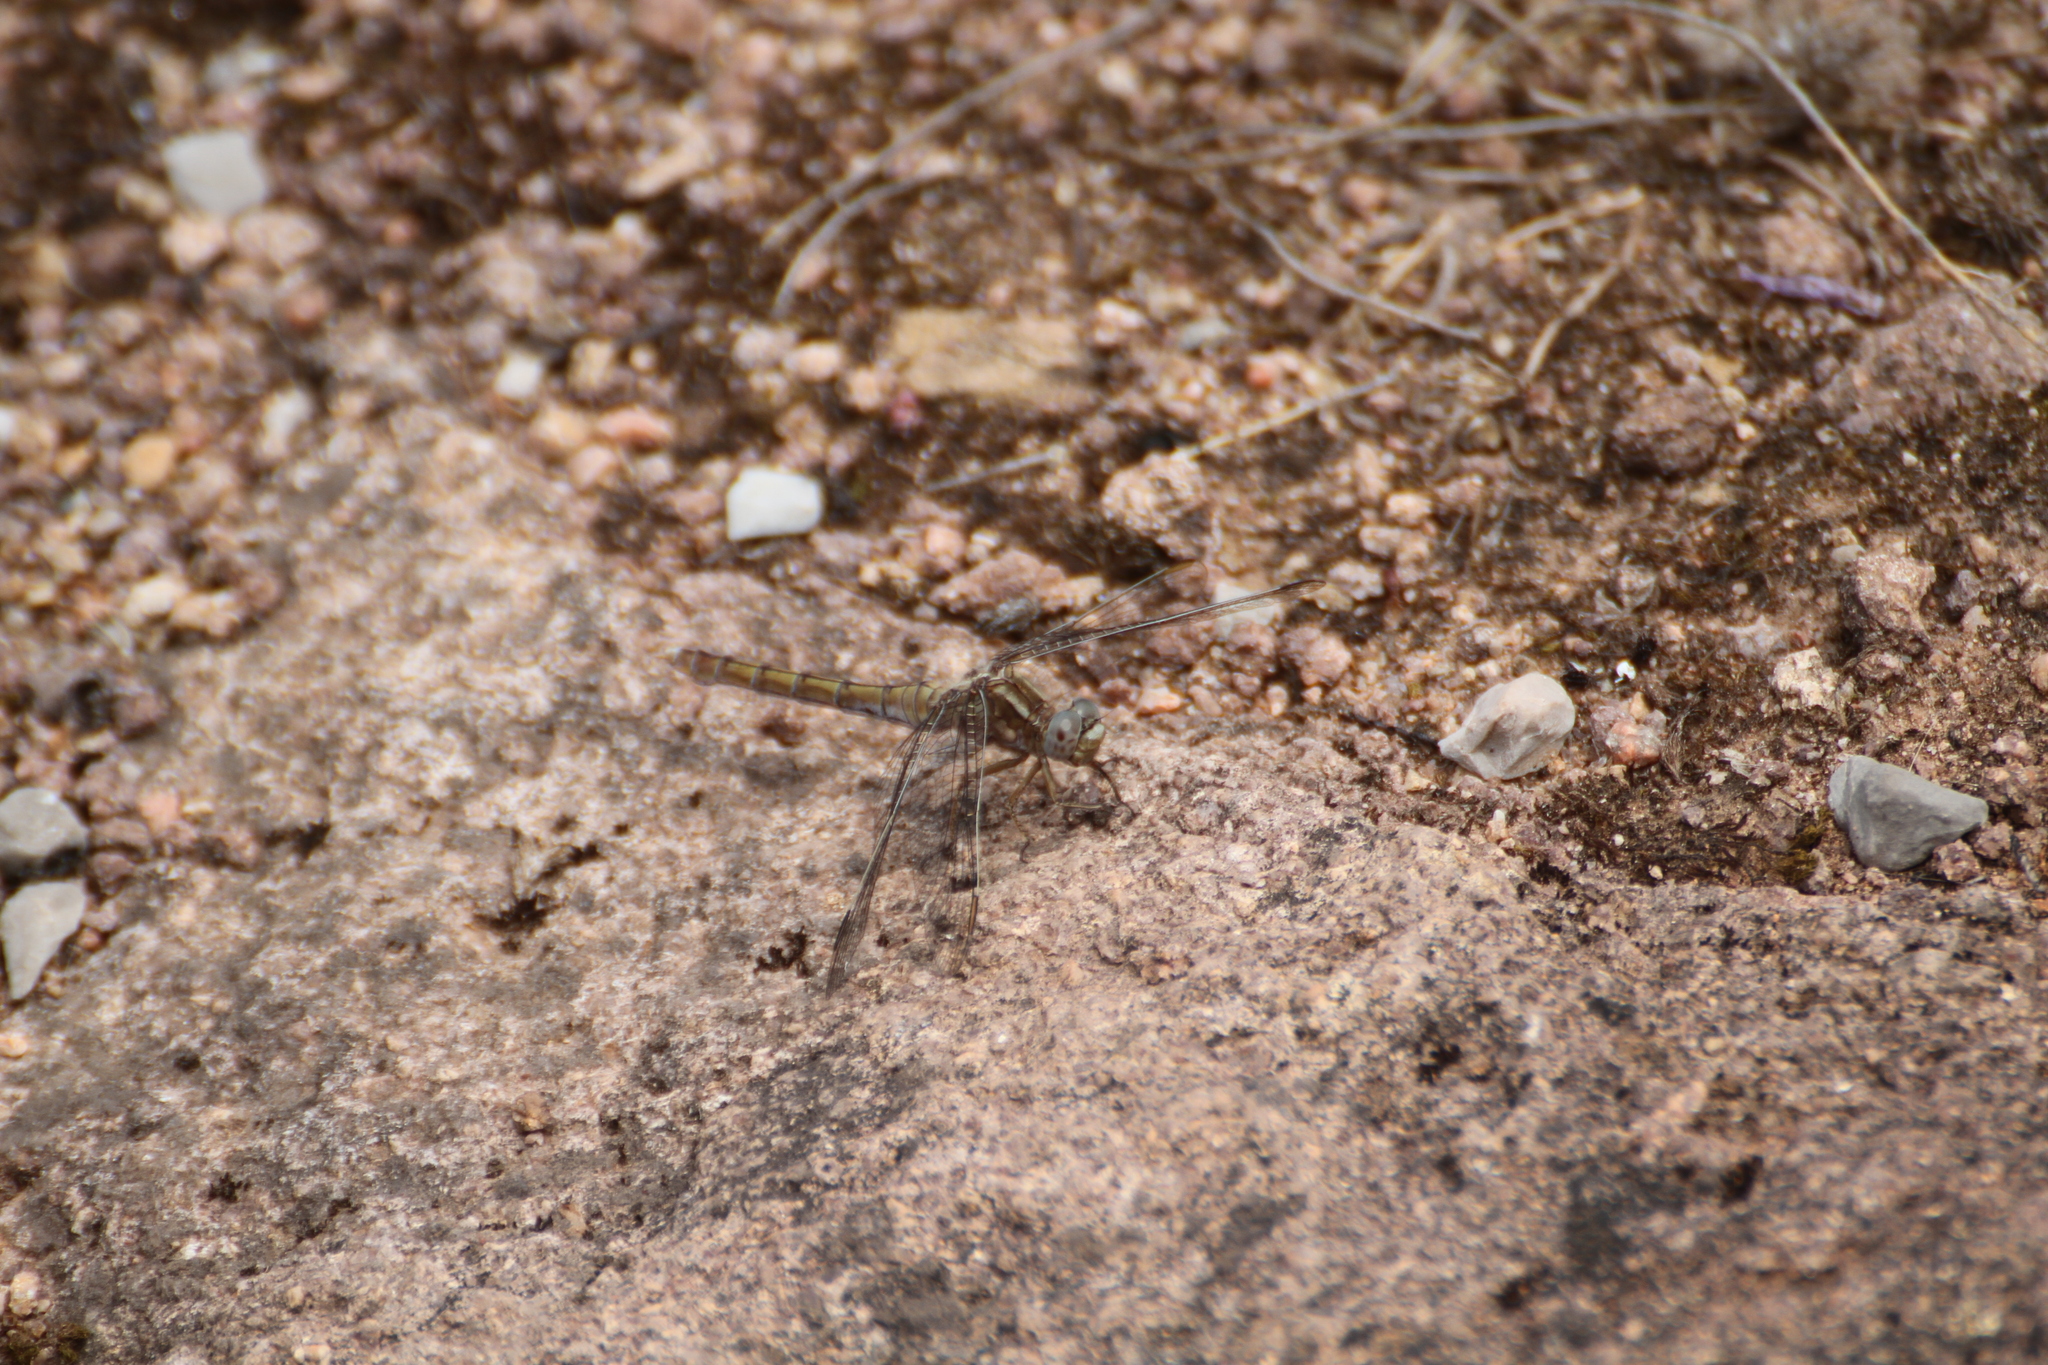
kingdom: Animalia
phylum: Arthropoda
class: Insecta
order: Odonata
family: Libellulidae
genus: Orthetrum
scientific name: Orthetrum coerulescens
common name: Keeled skimmer
